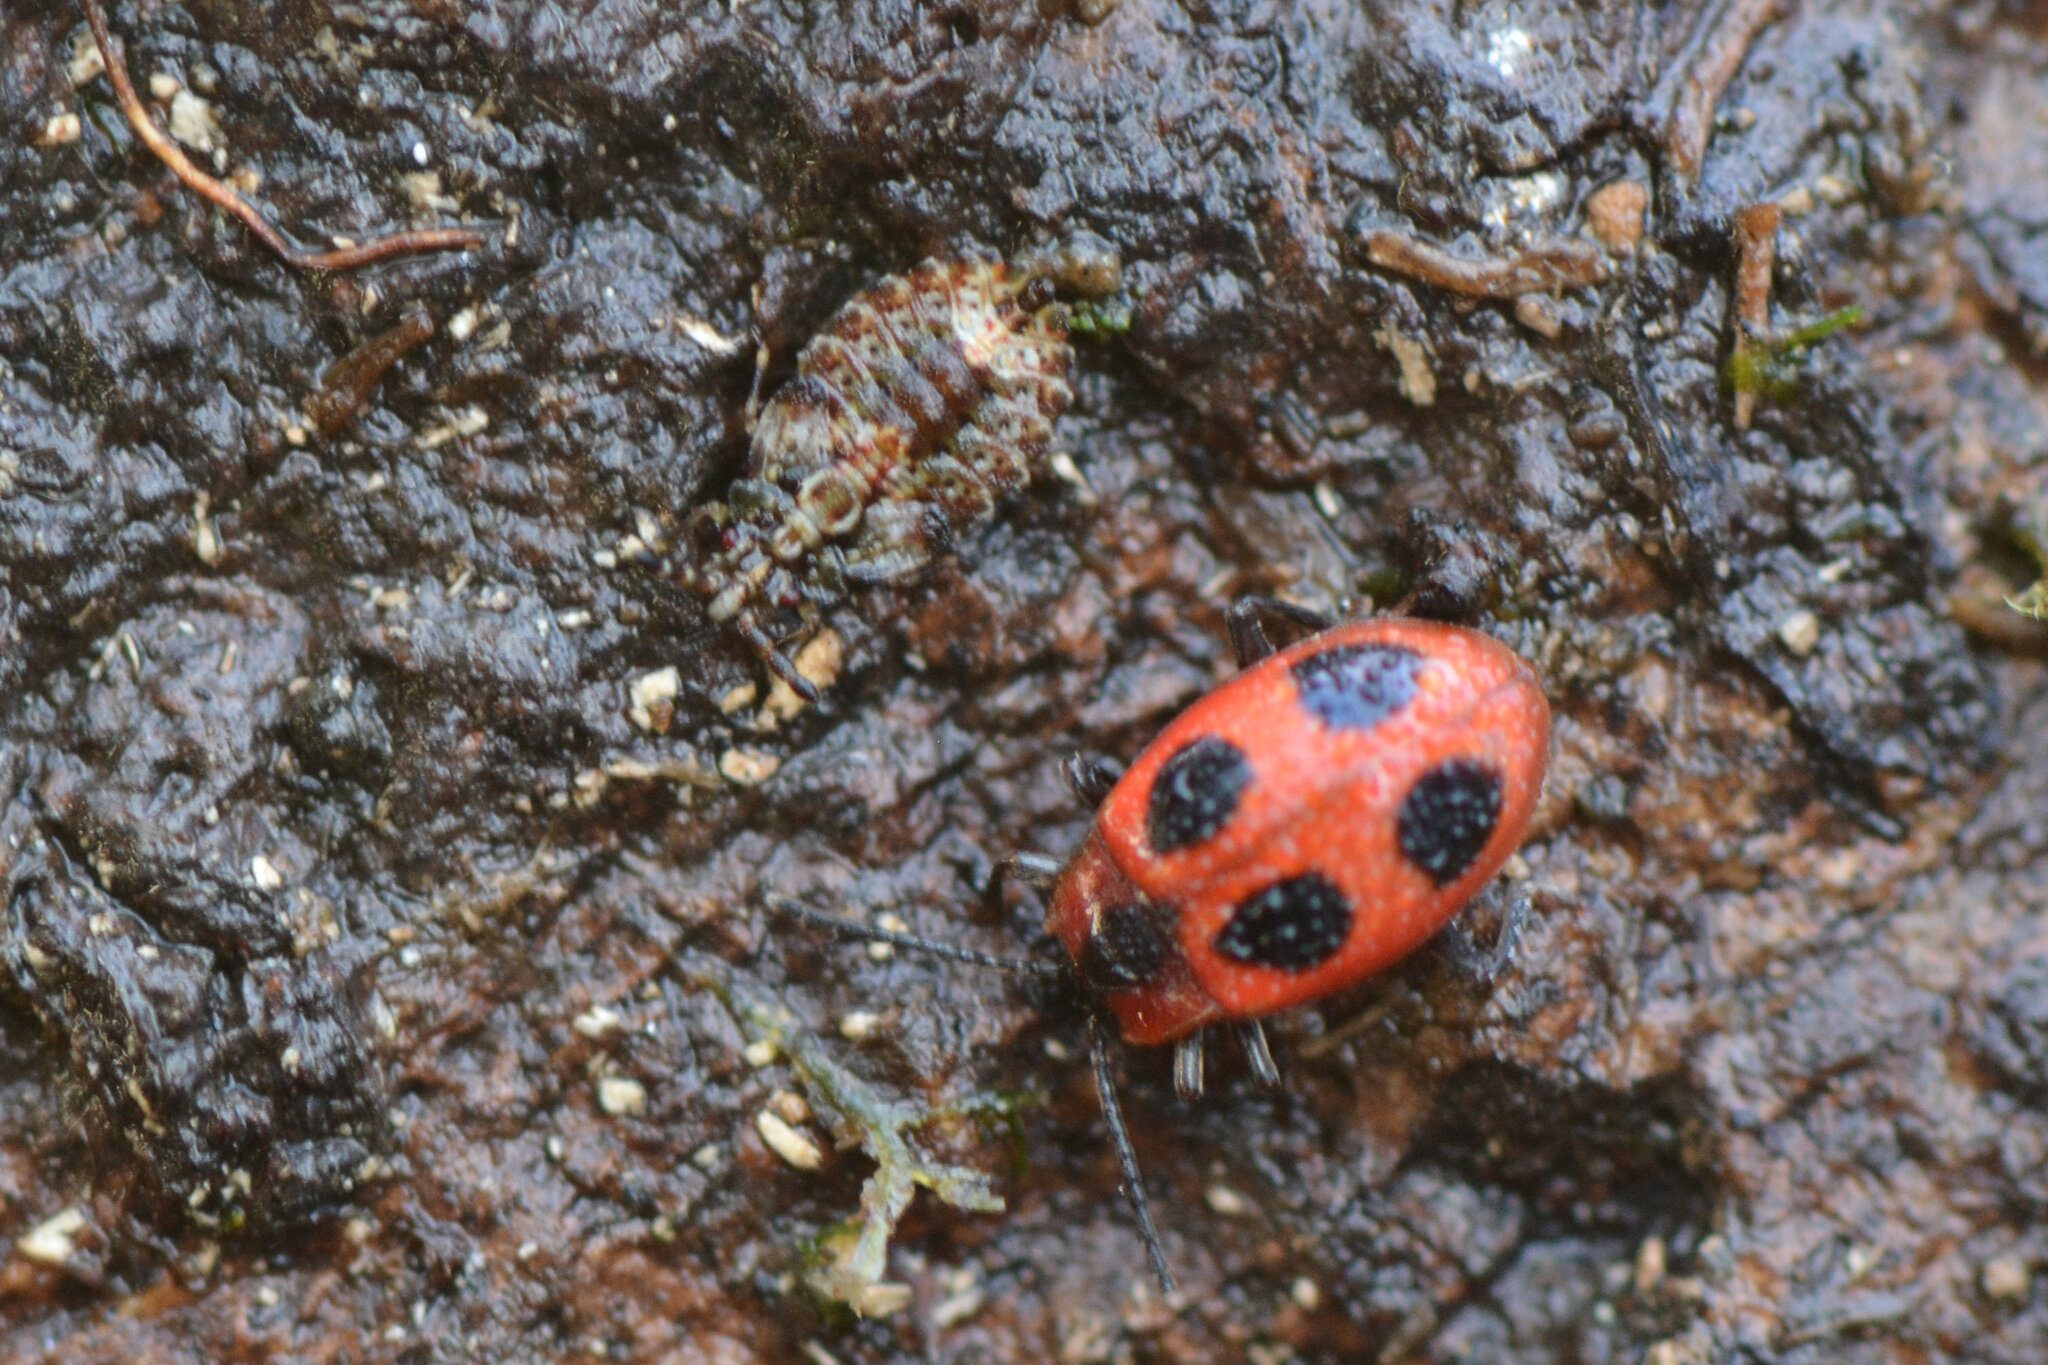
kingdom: Animalia
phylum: Arthropoda
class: Insecta
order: Coleoptera
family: Endomychidae
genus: Endomychus
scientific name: Endomychus coccineus
